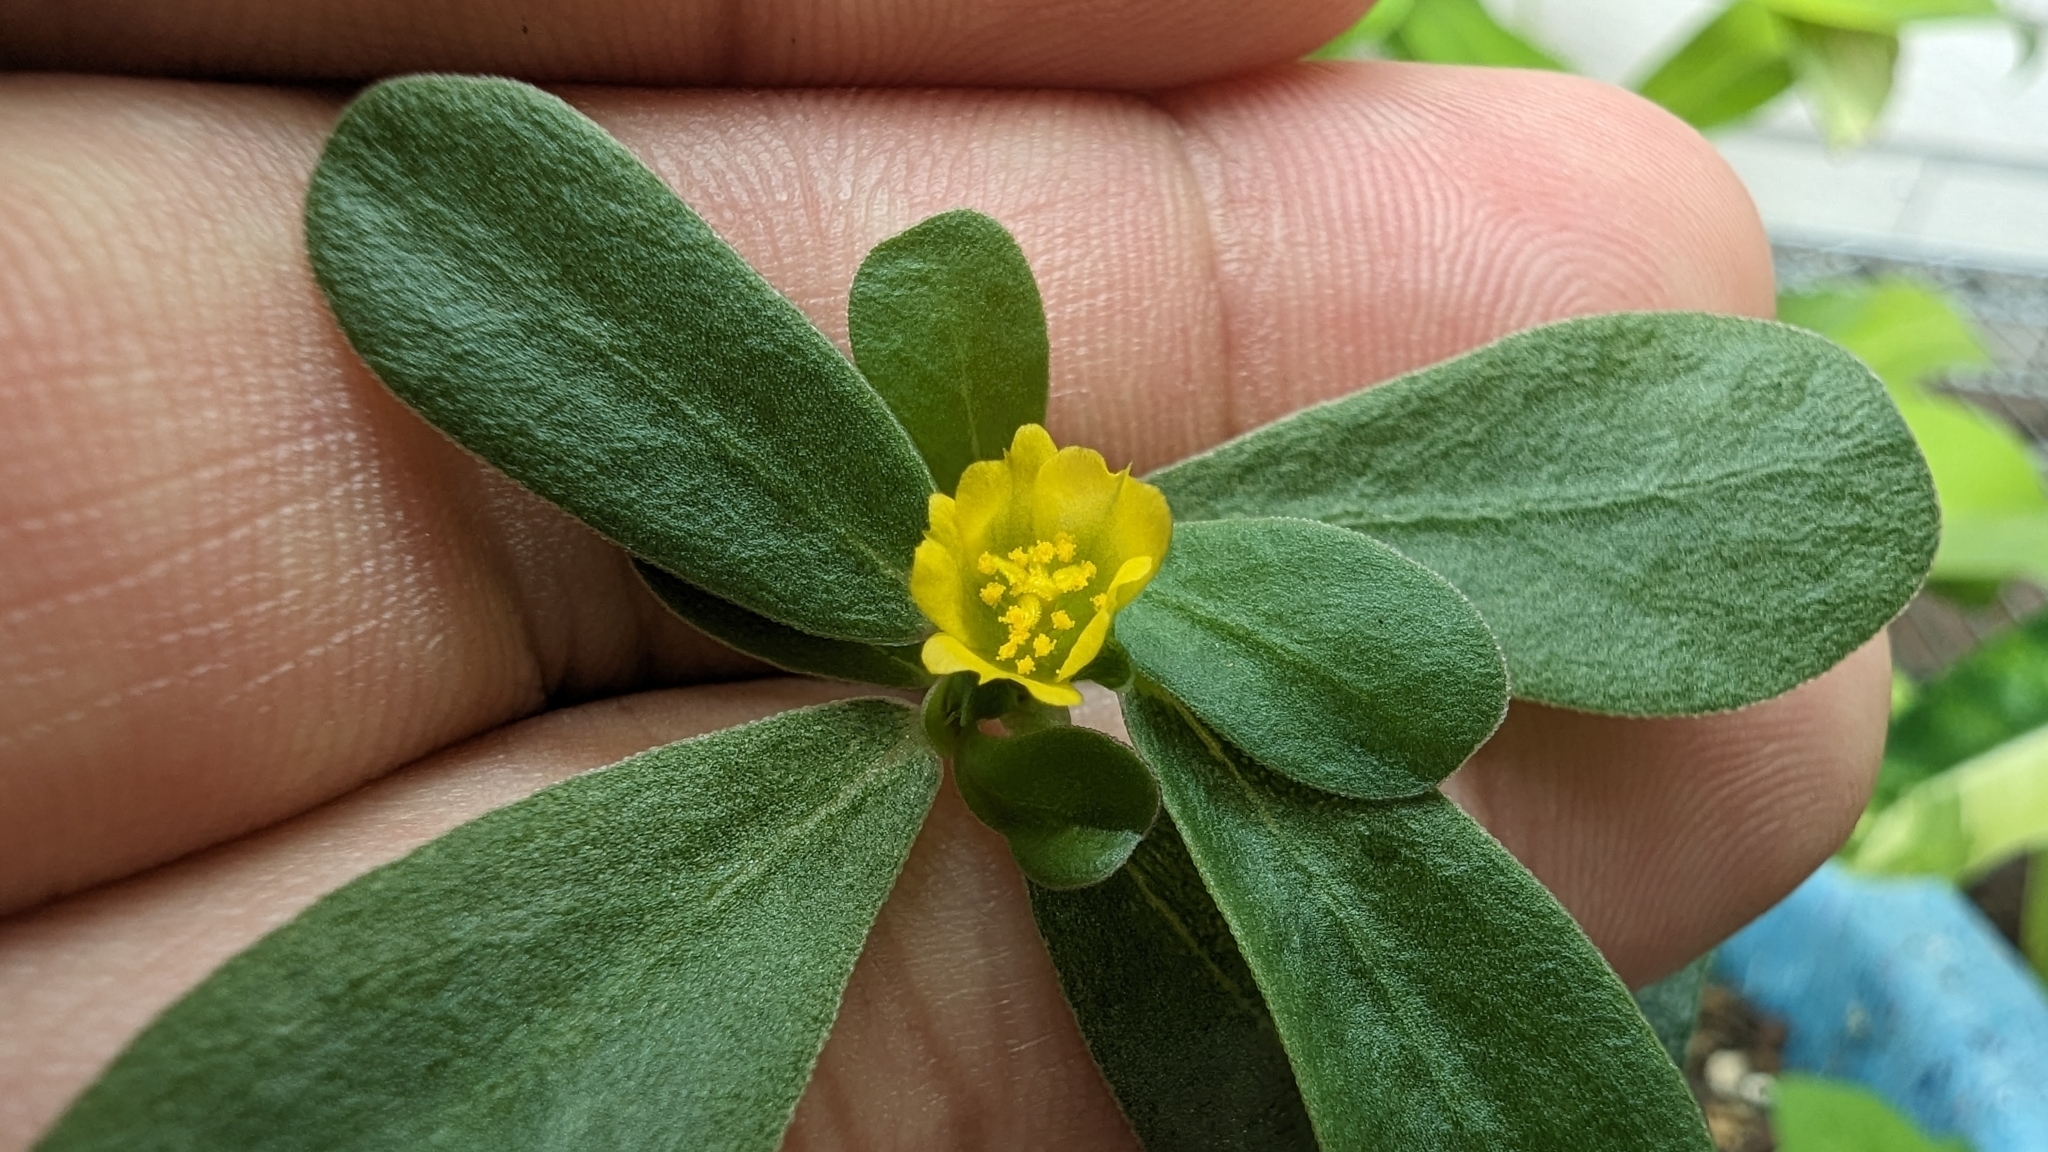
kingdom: Plantae
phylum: Tracheophyta
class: Magnoliopsida
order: Caryophyllales
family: Portulacaceae
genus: Portulaca
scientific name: Portulaca oleracea
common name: Common purslane
